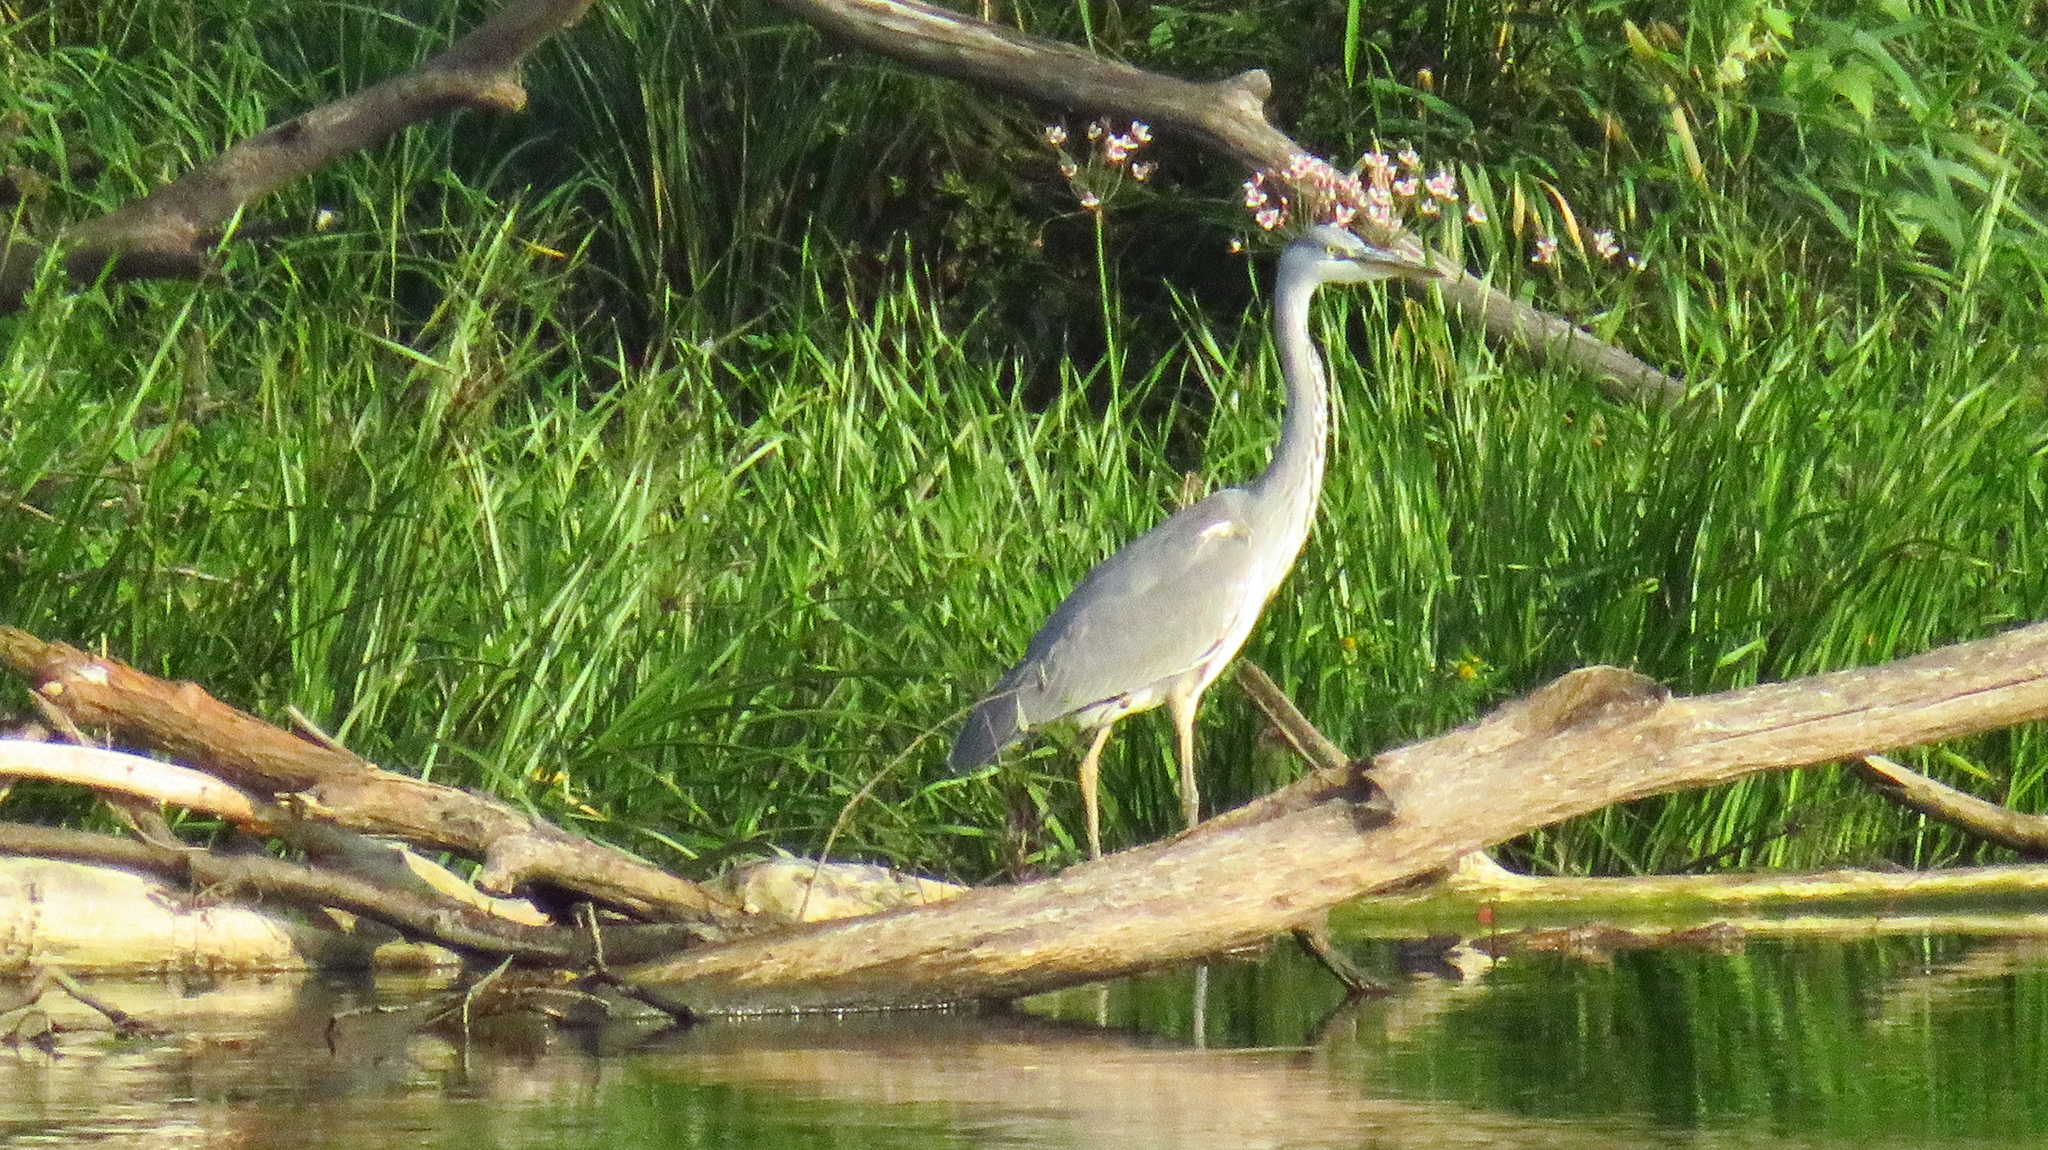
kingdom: Animalia
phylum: Chordata
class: Aves
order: Pelecaniformes
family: Ardeidae
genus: Ardea
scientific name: Ardea cinerea
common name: Grey heron
